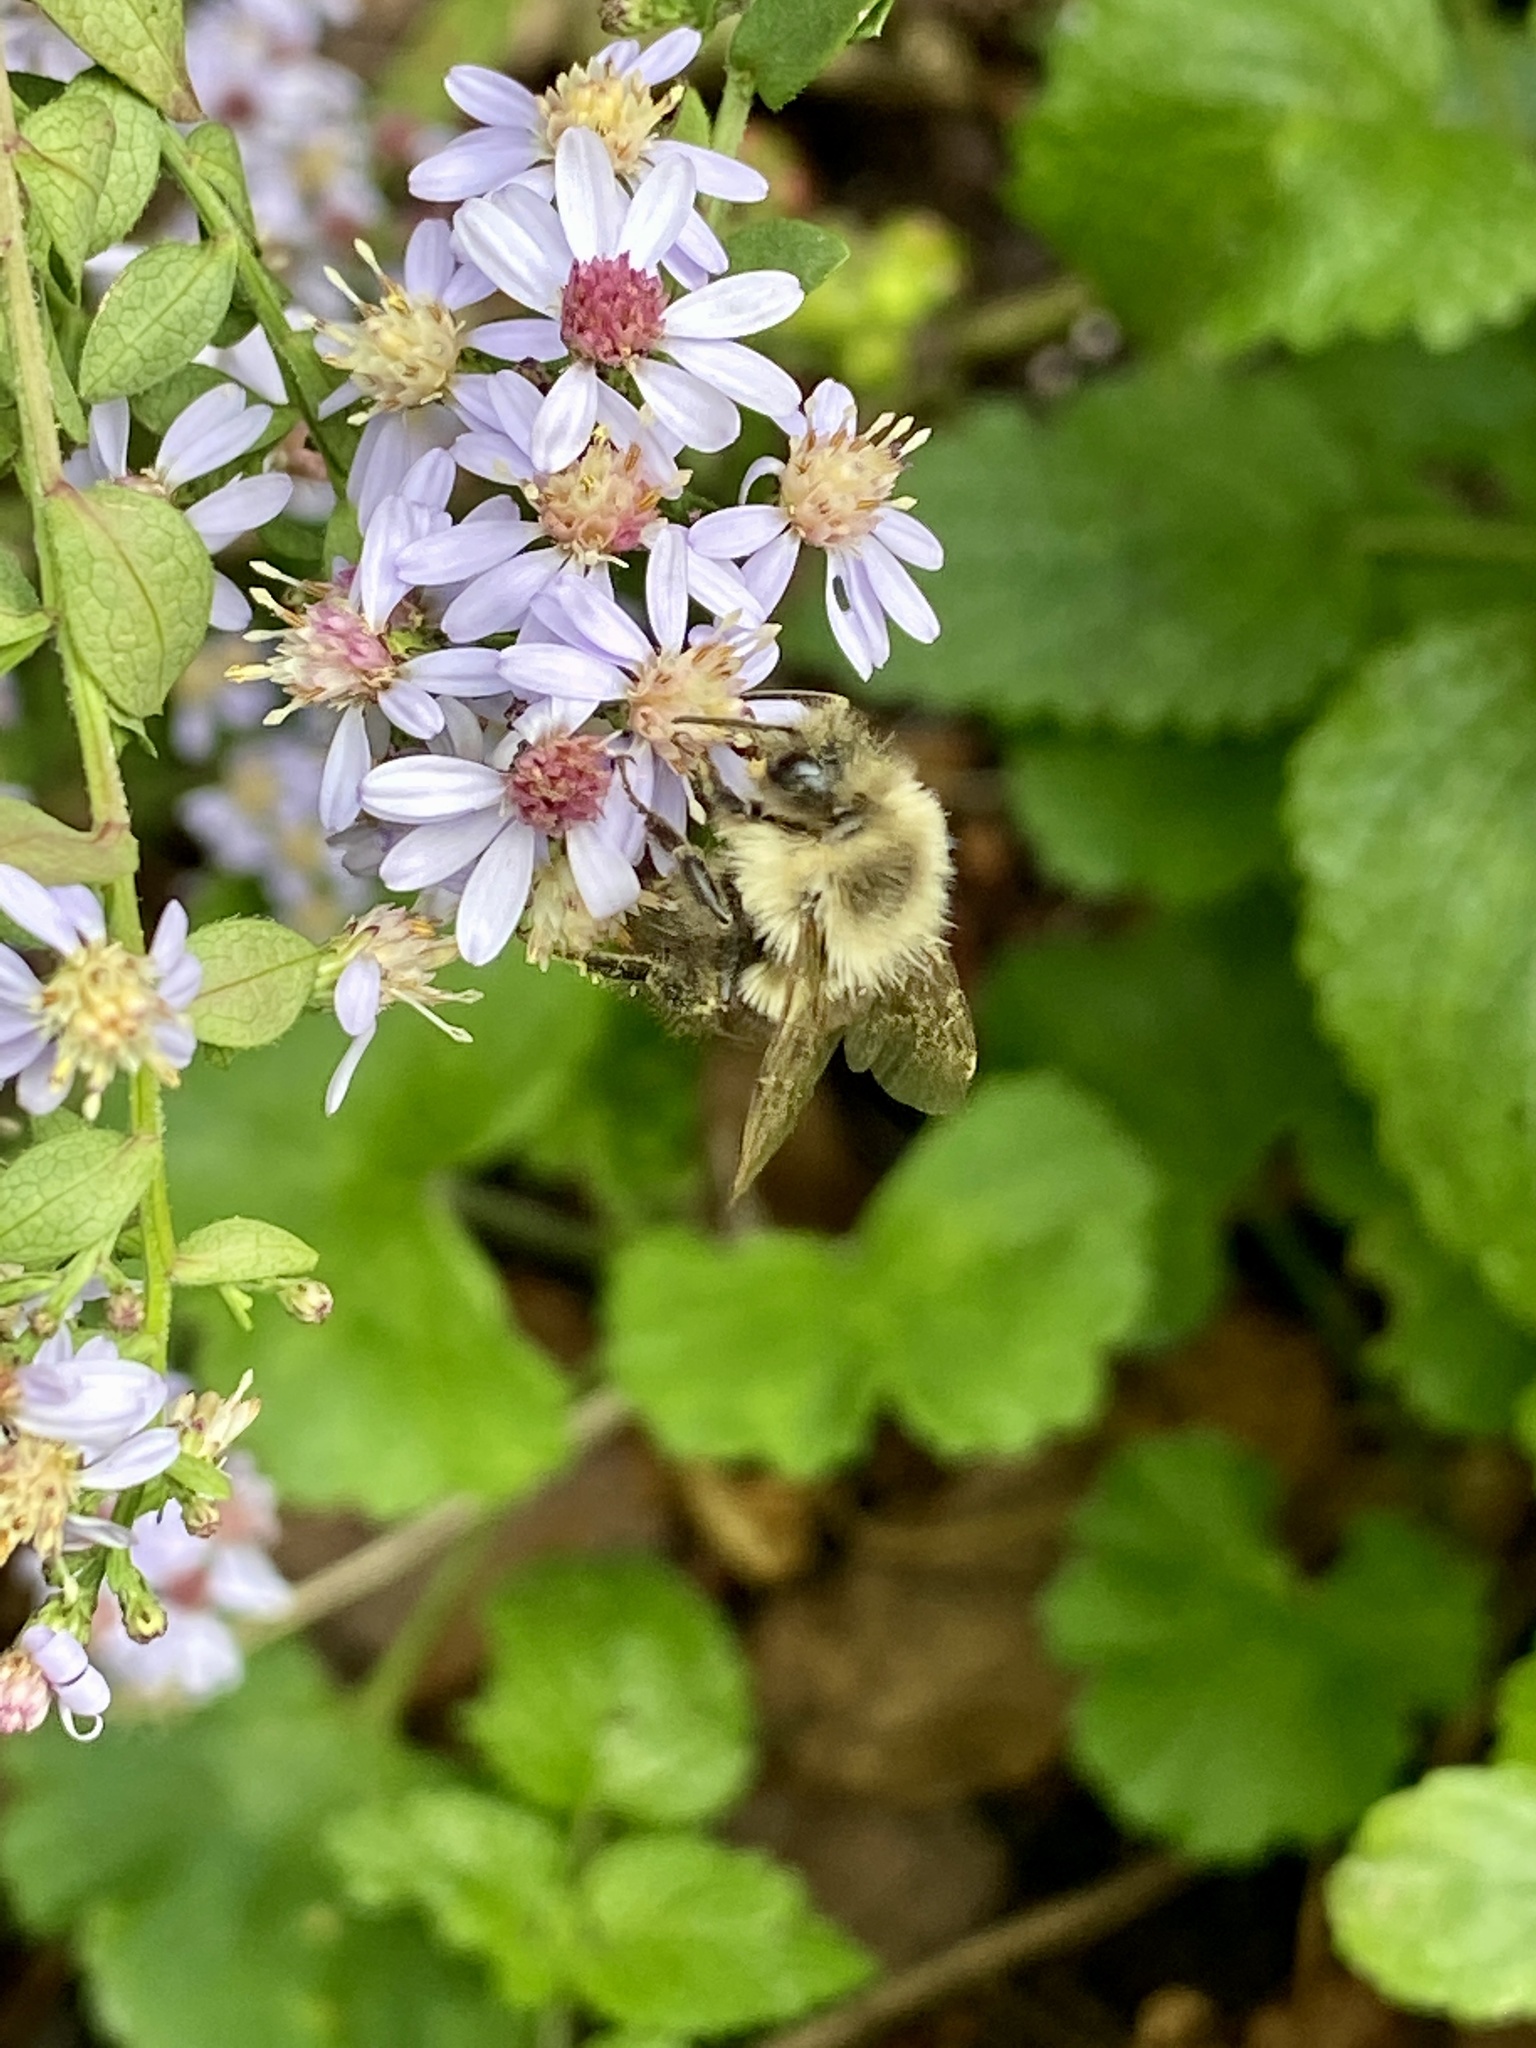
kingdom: Animalia
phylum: Arthropoda
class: Insecta
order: Hymenoptera
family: Apidae
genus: Bombus
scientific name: Bombus impatiens
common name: Common eastern bumble bee
